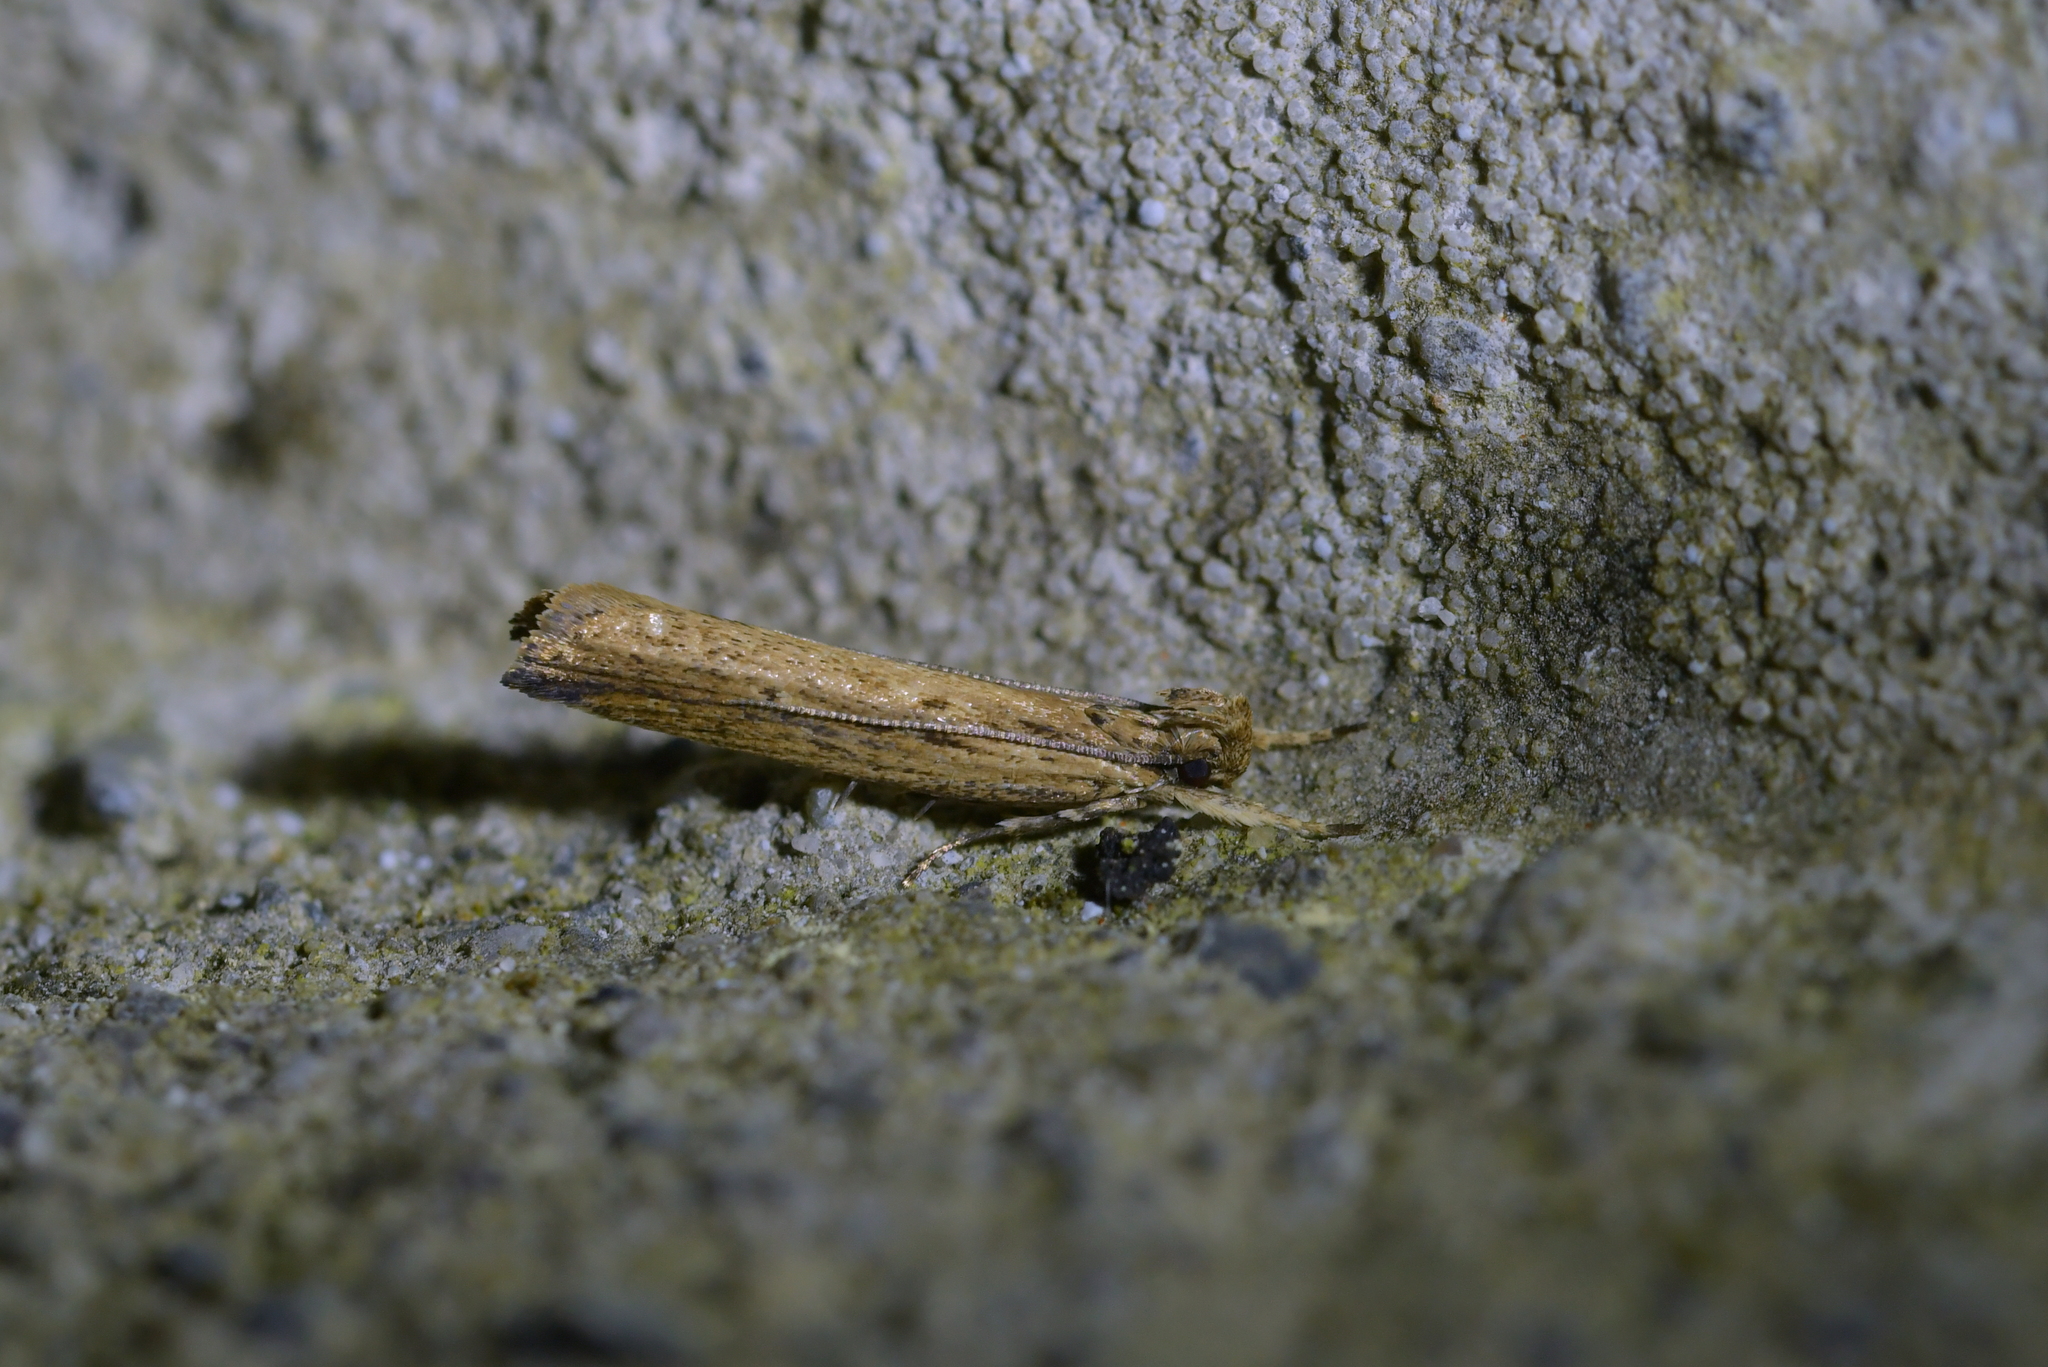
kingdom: Animalia
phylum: Arthropoda
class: Insecta
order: Lepidoptera
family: Gelechiidae
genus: Helcystogramma
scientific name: Helcystogramma phryganitis
